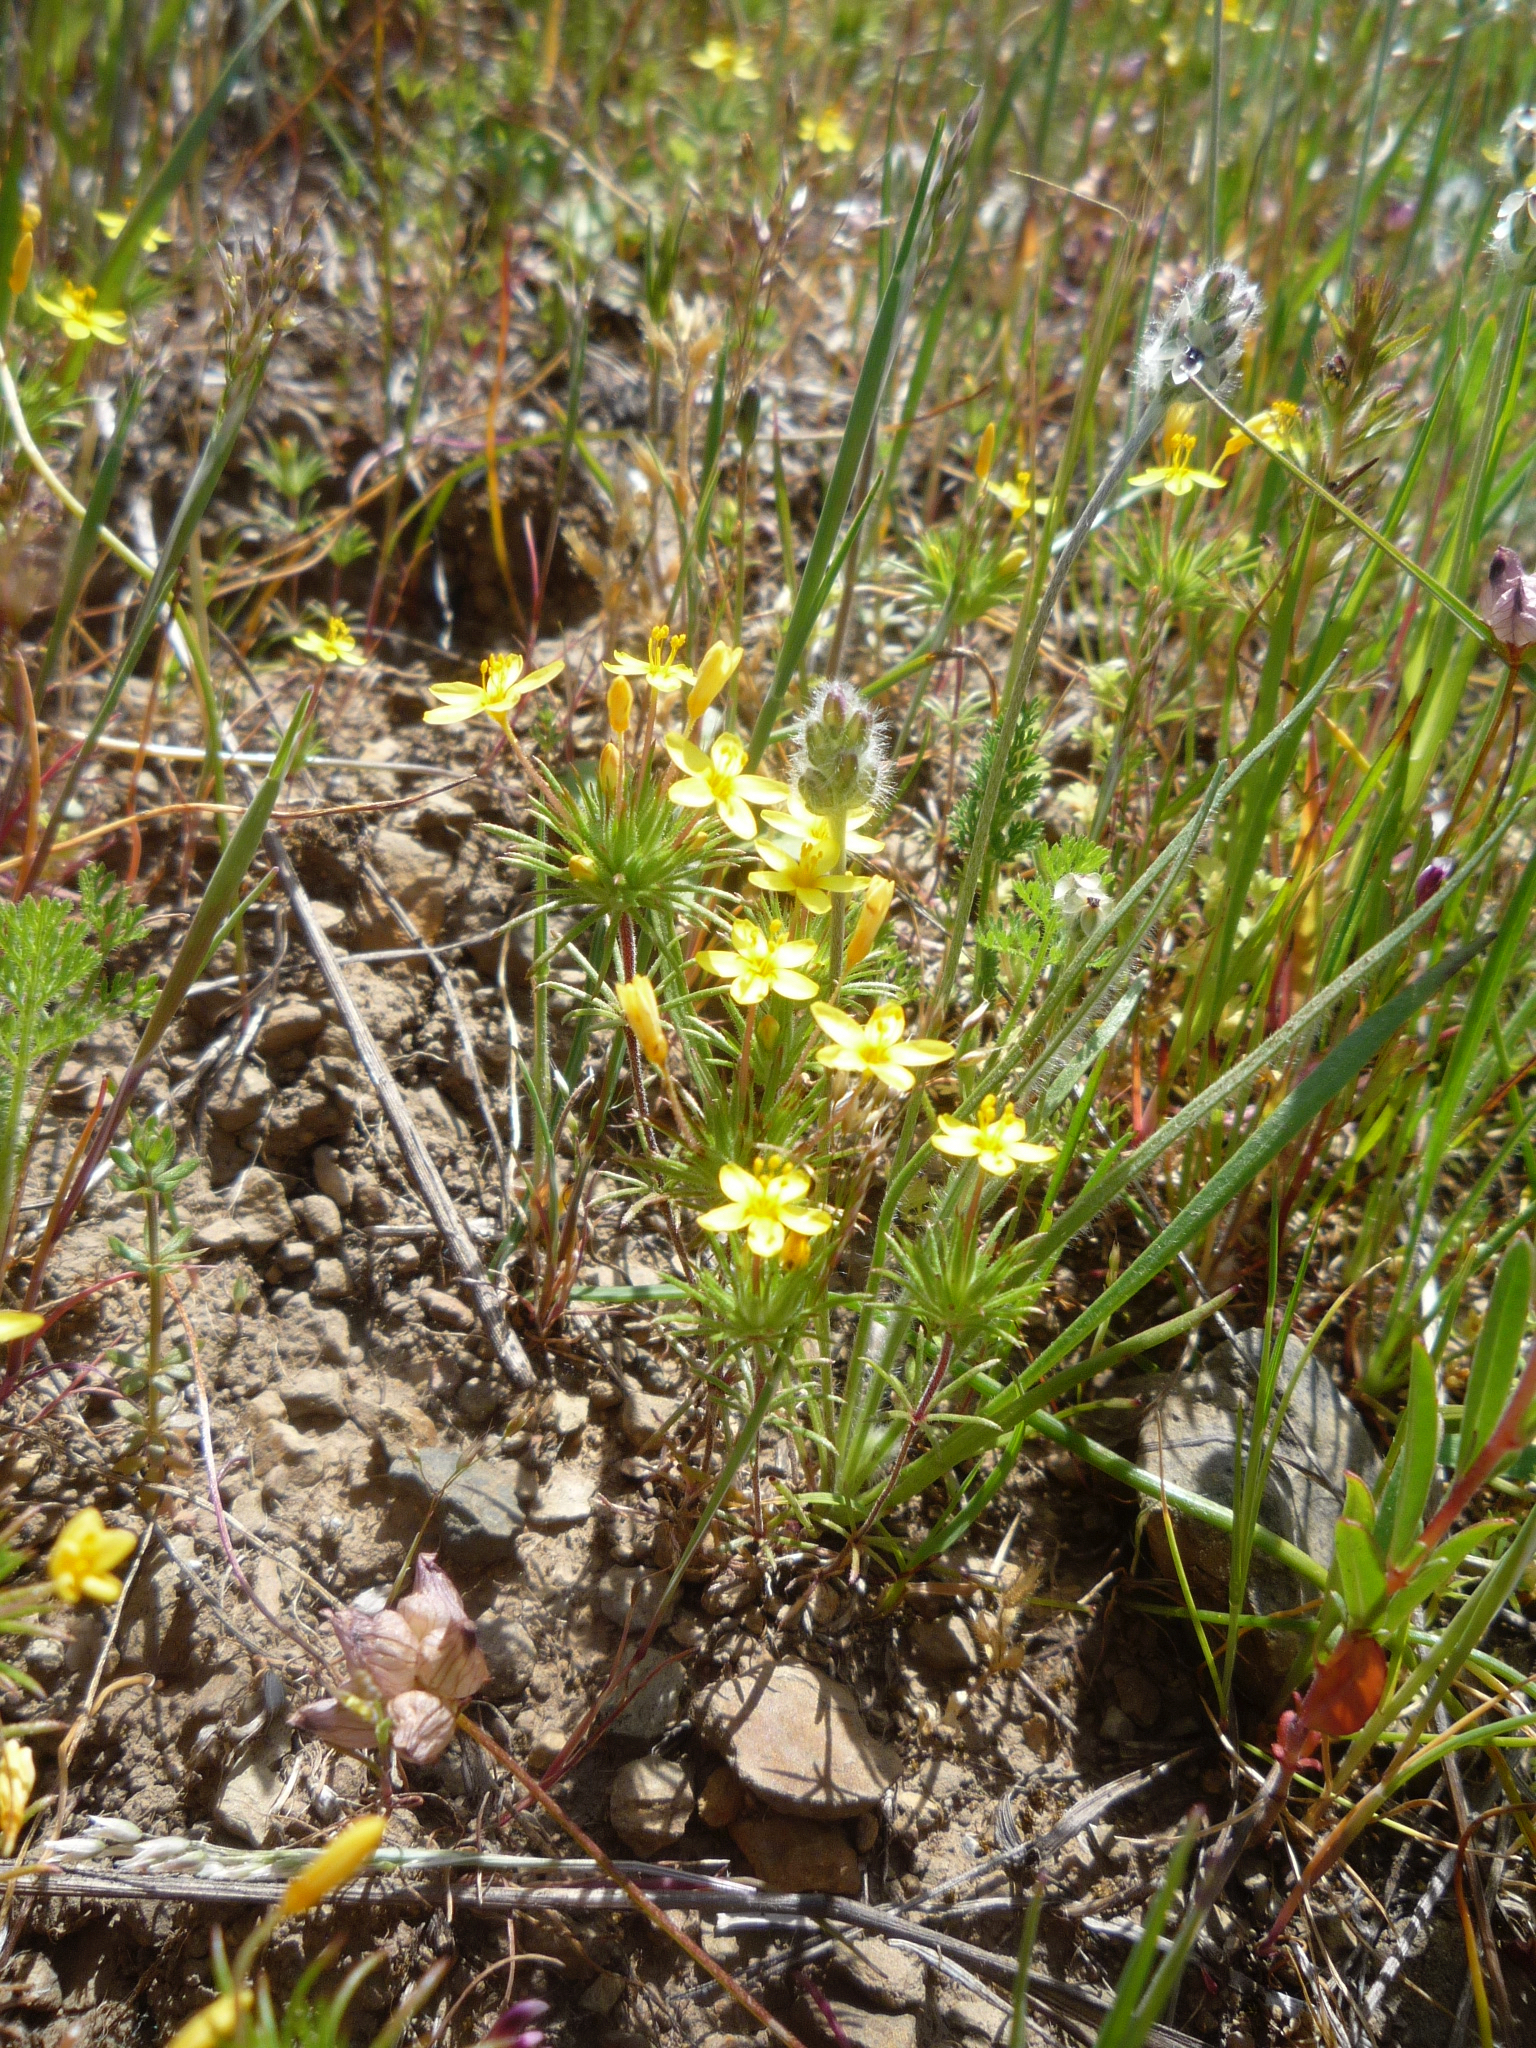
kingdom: Plantae
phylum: Tracheophyta
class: Magnoliopsida
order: Ericales
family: Polemoniaceae
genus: Leptosiphon
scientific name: Leptosiphon acicularis
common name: Bristly linanthus
